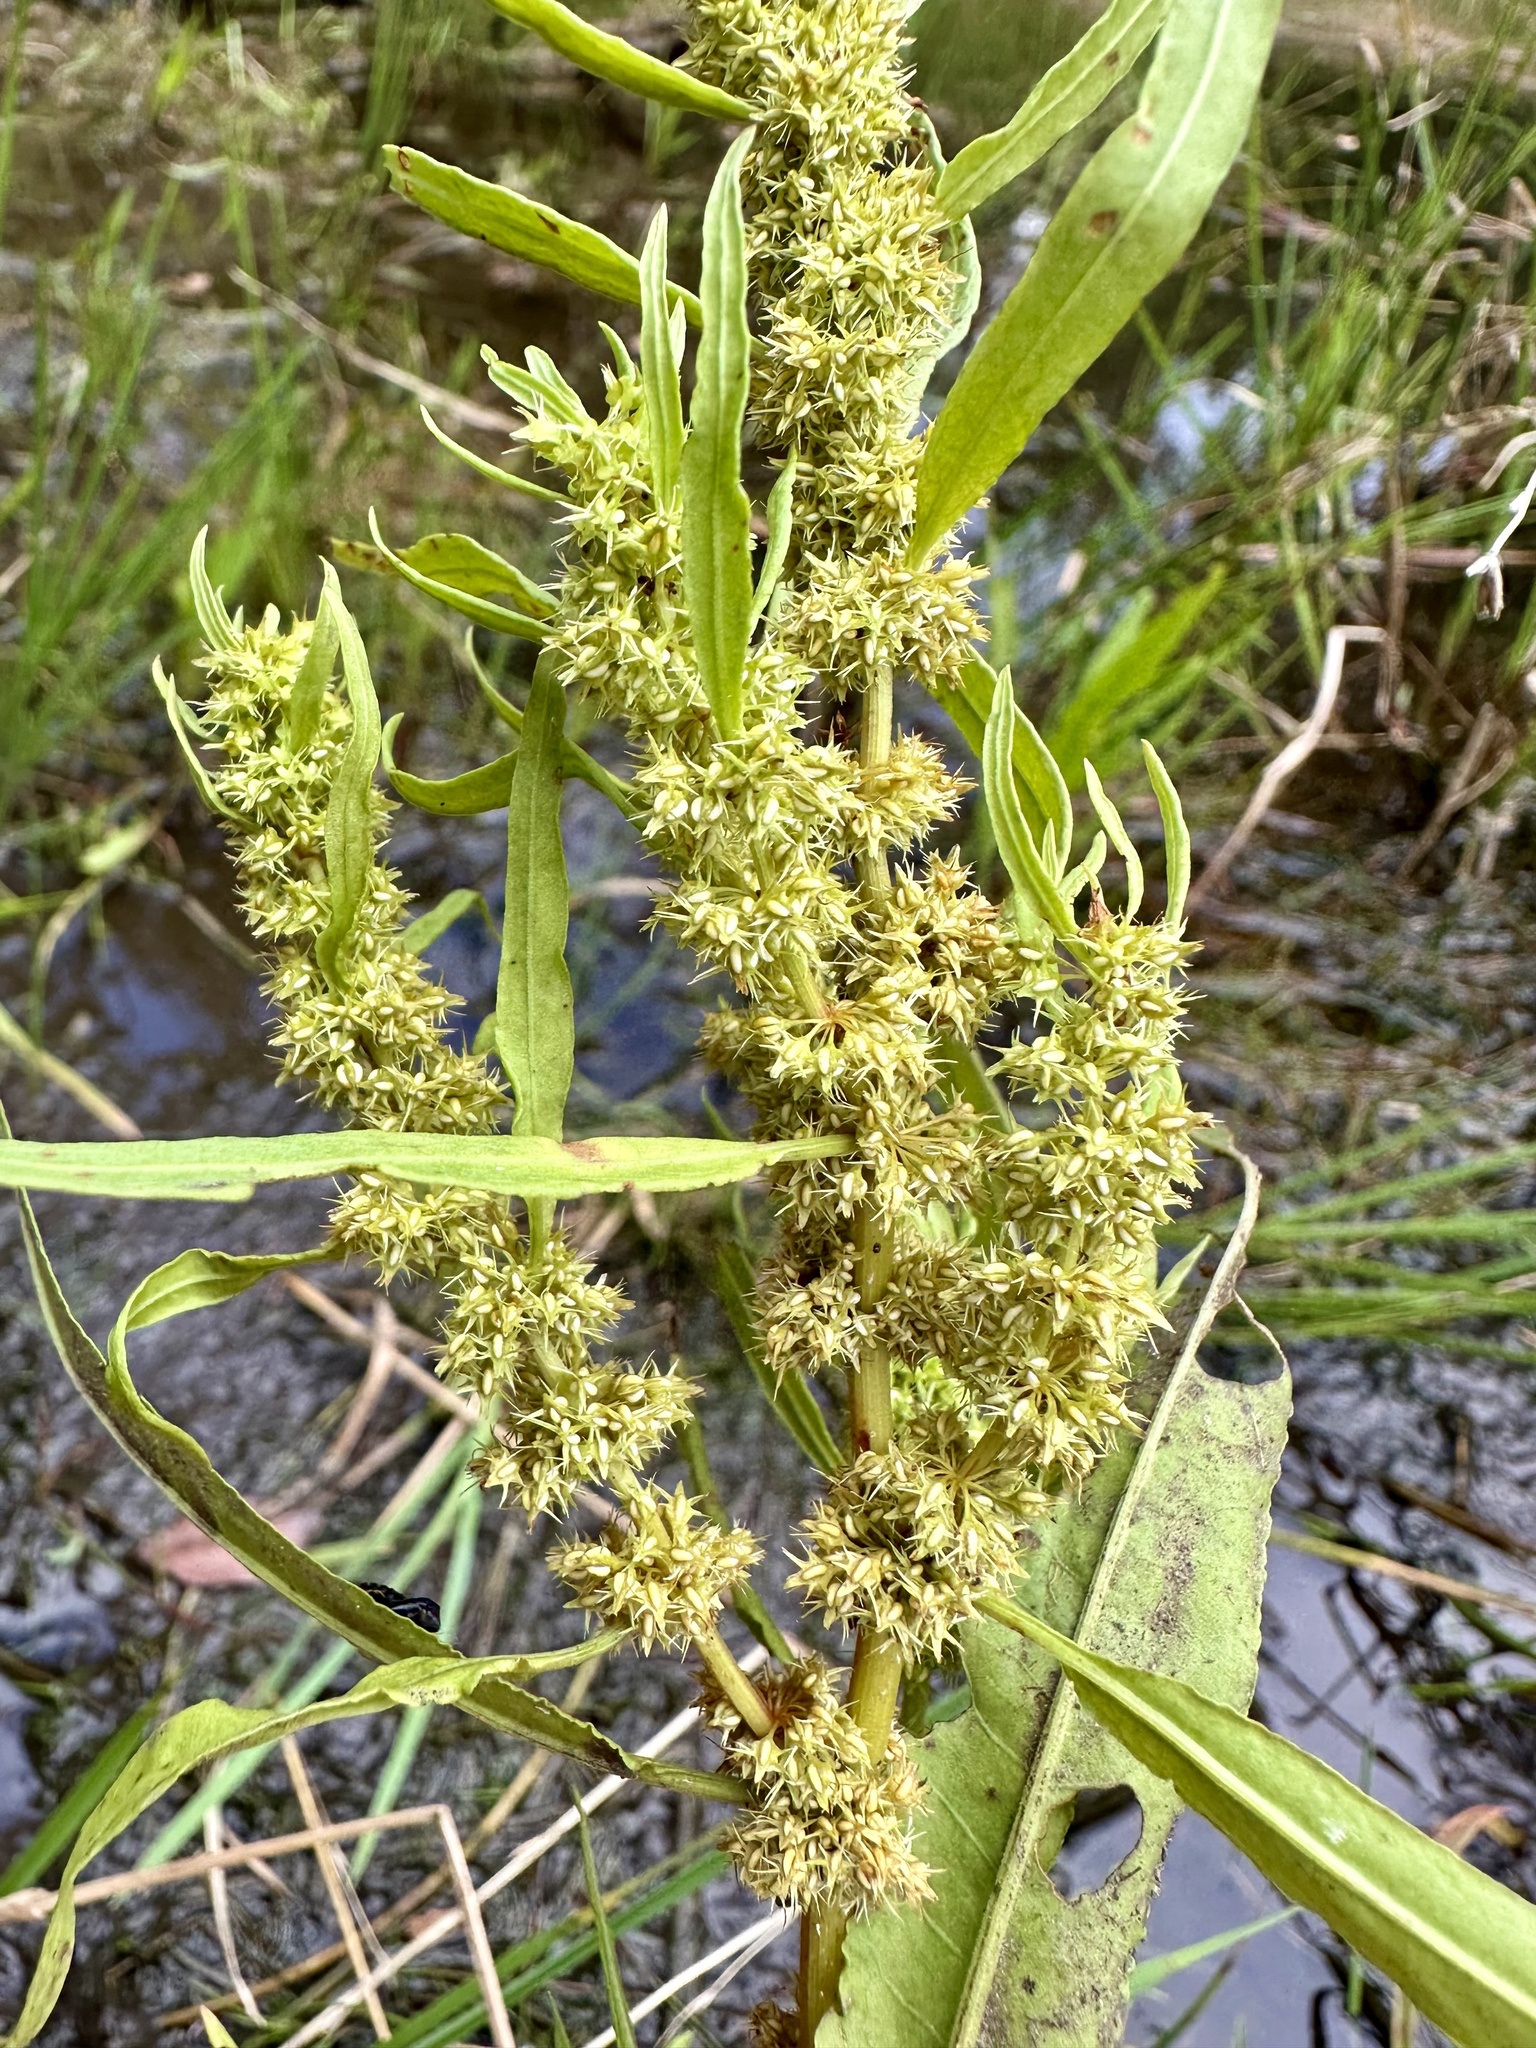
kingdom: Plantae
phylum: Tracheophyta
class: Magnoliopsida
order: Caryophyllales
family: Polygonaceae
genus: Rumex
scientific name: Rumex maritimus
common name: Golden dock
